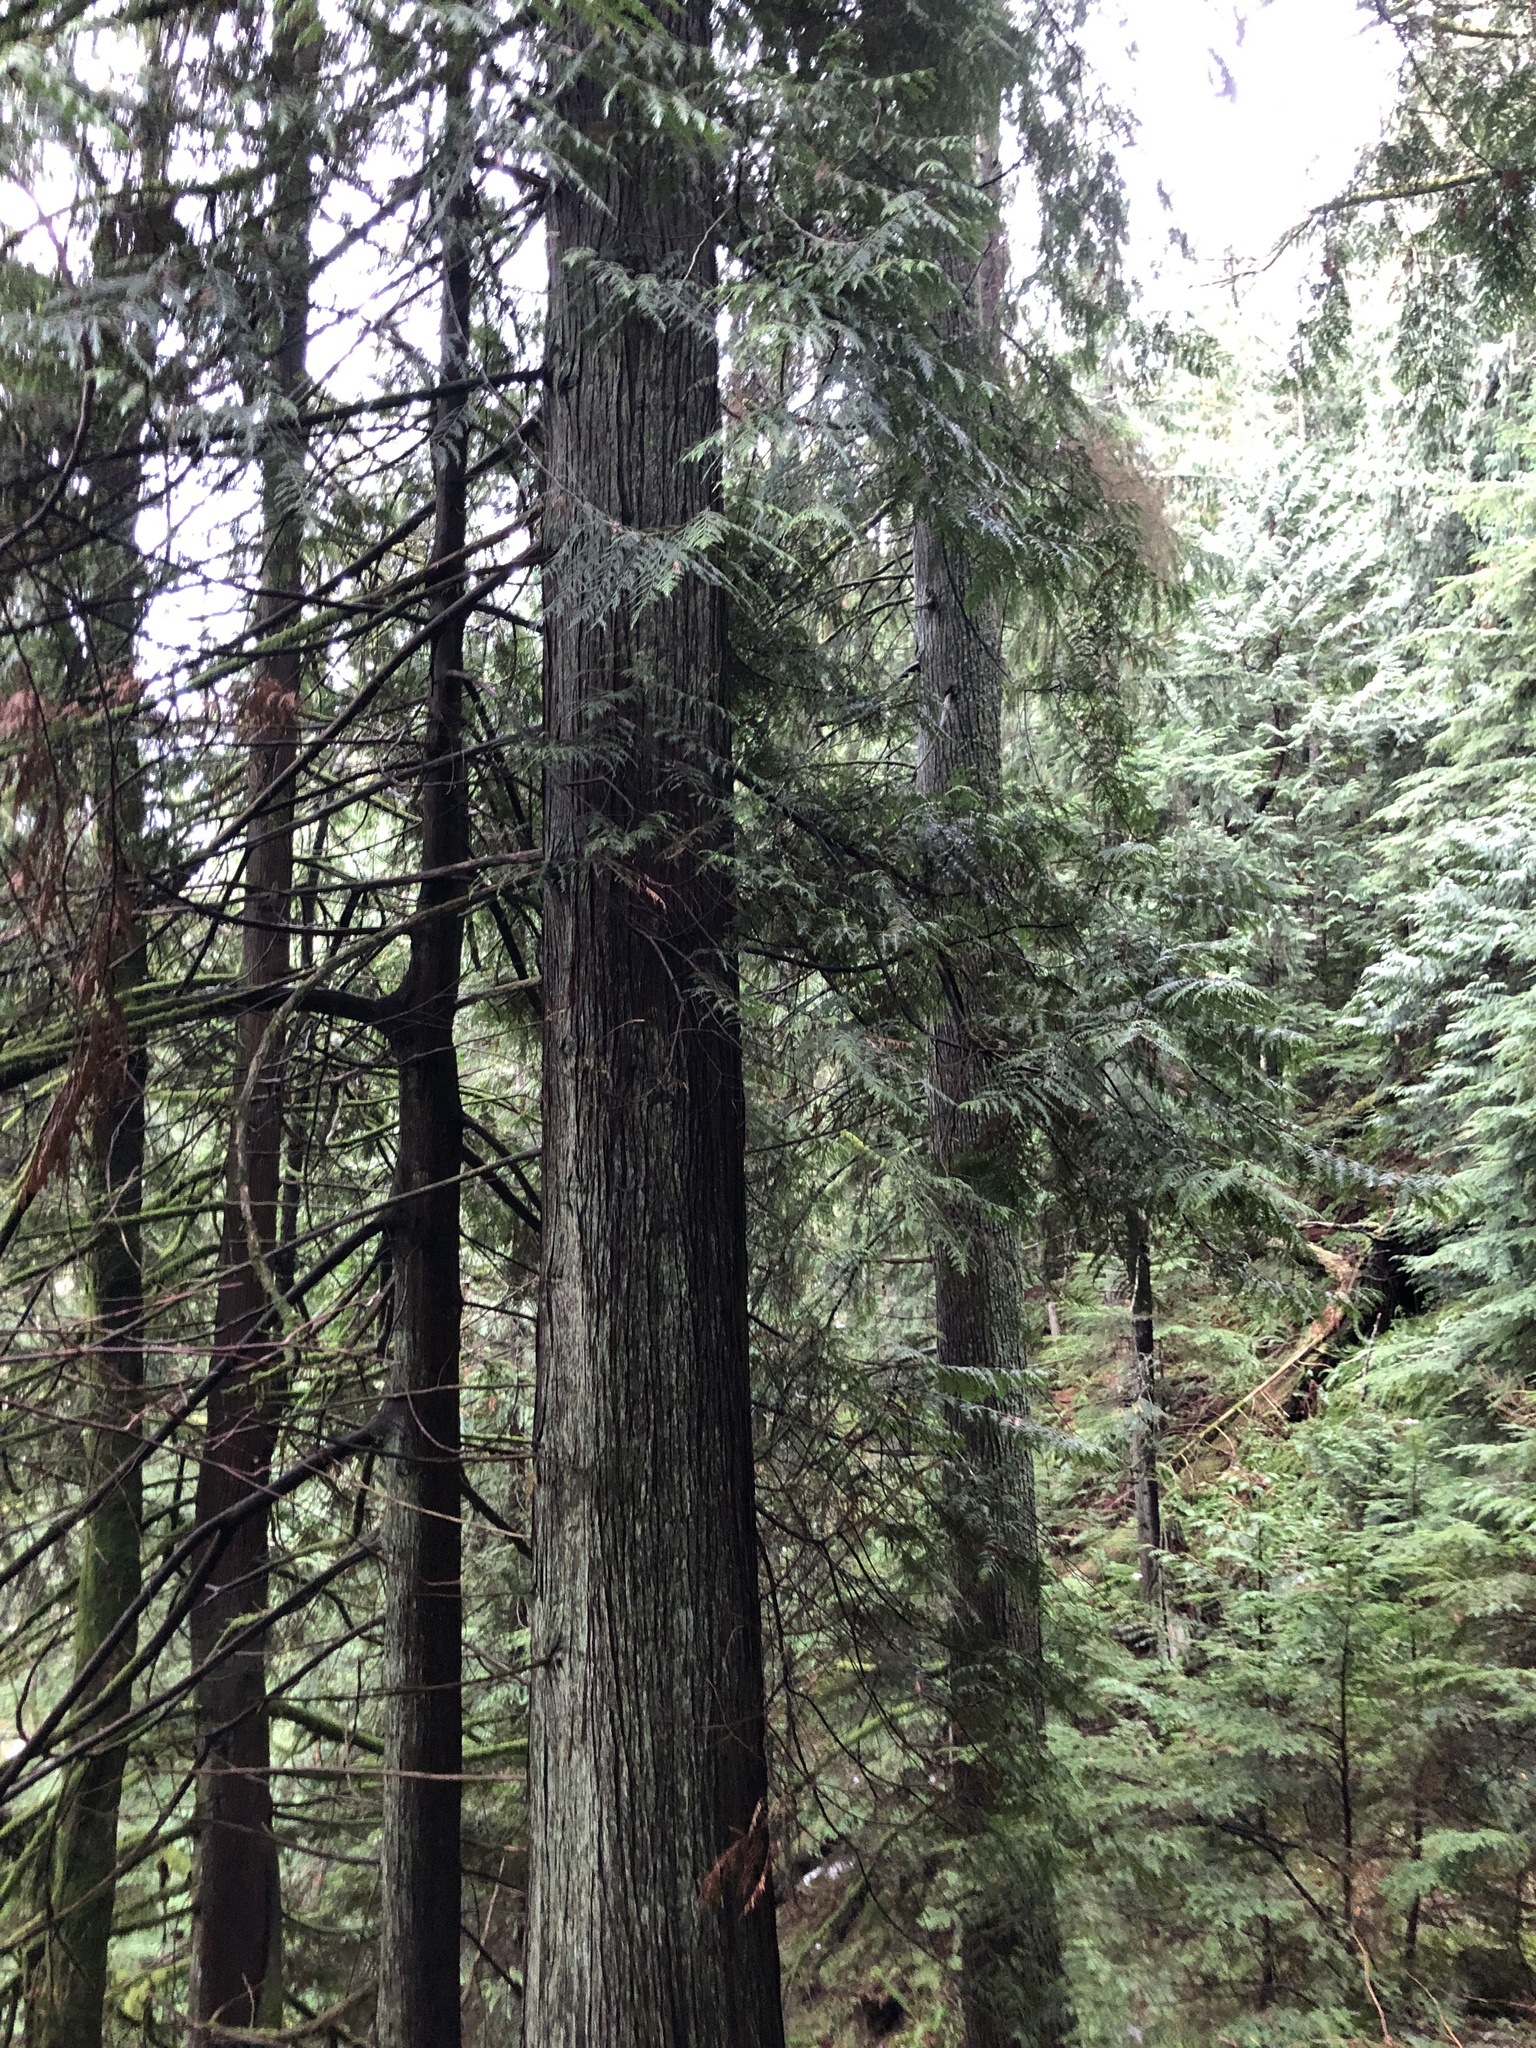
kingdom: Plantae
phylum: Tracheophyta
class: Pinopsida
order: Pinales
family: Cupressaceae
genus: Thuja
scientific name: Thuja plicata
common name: Western red-cedar
